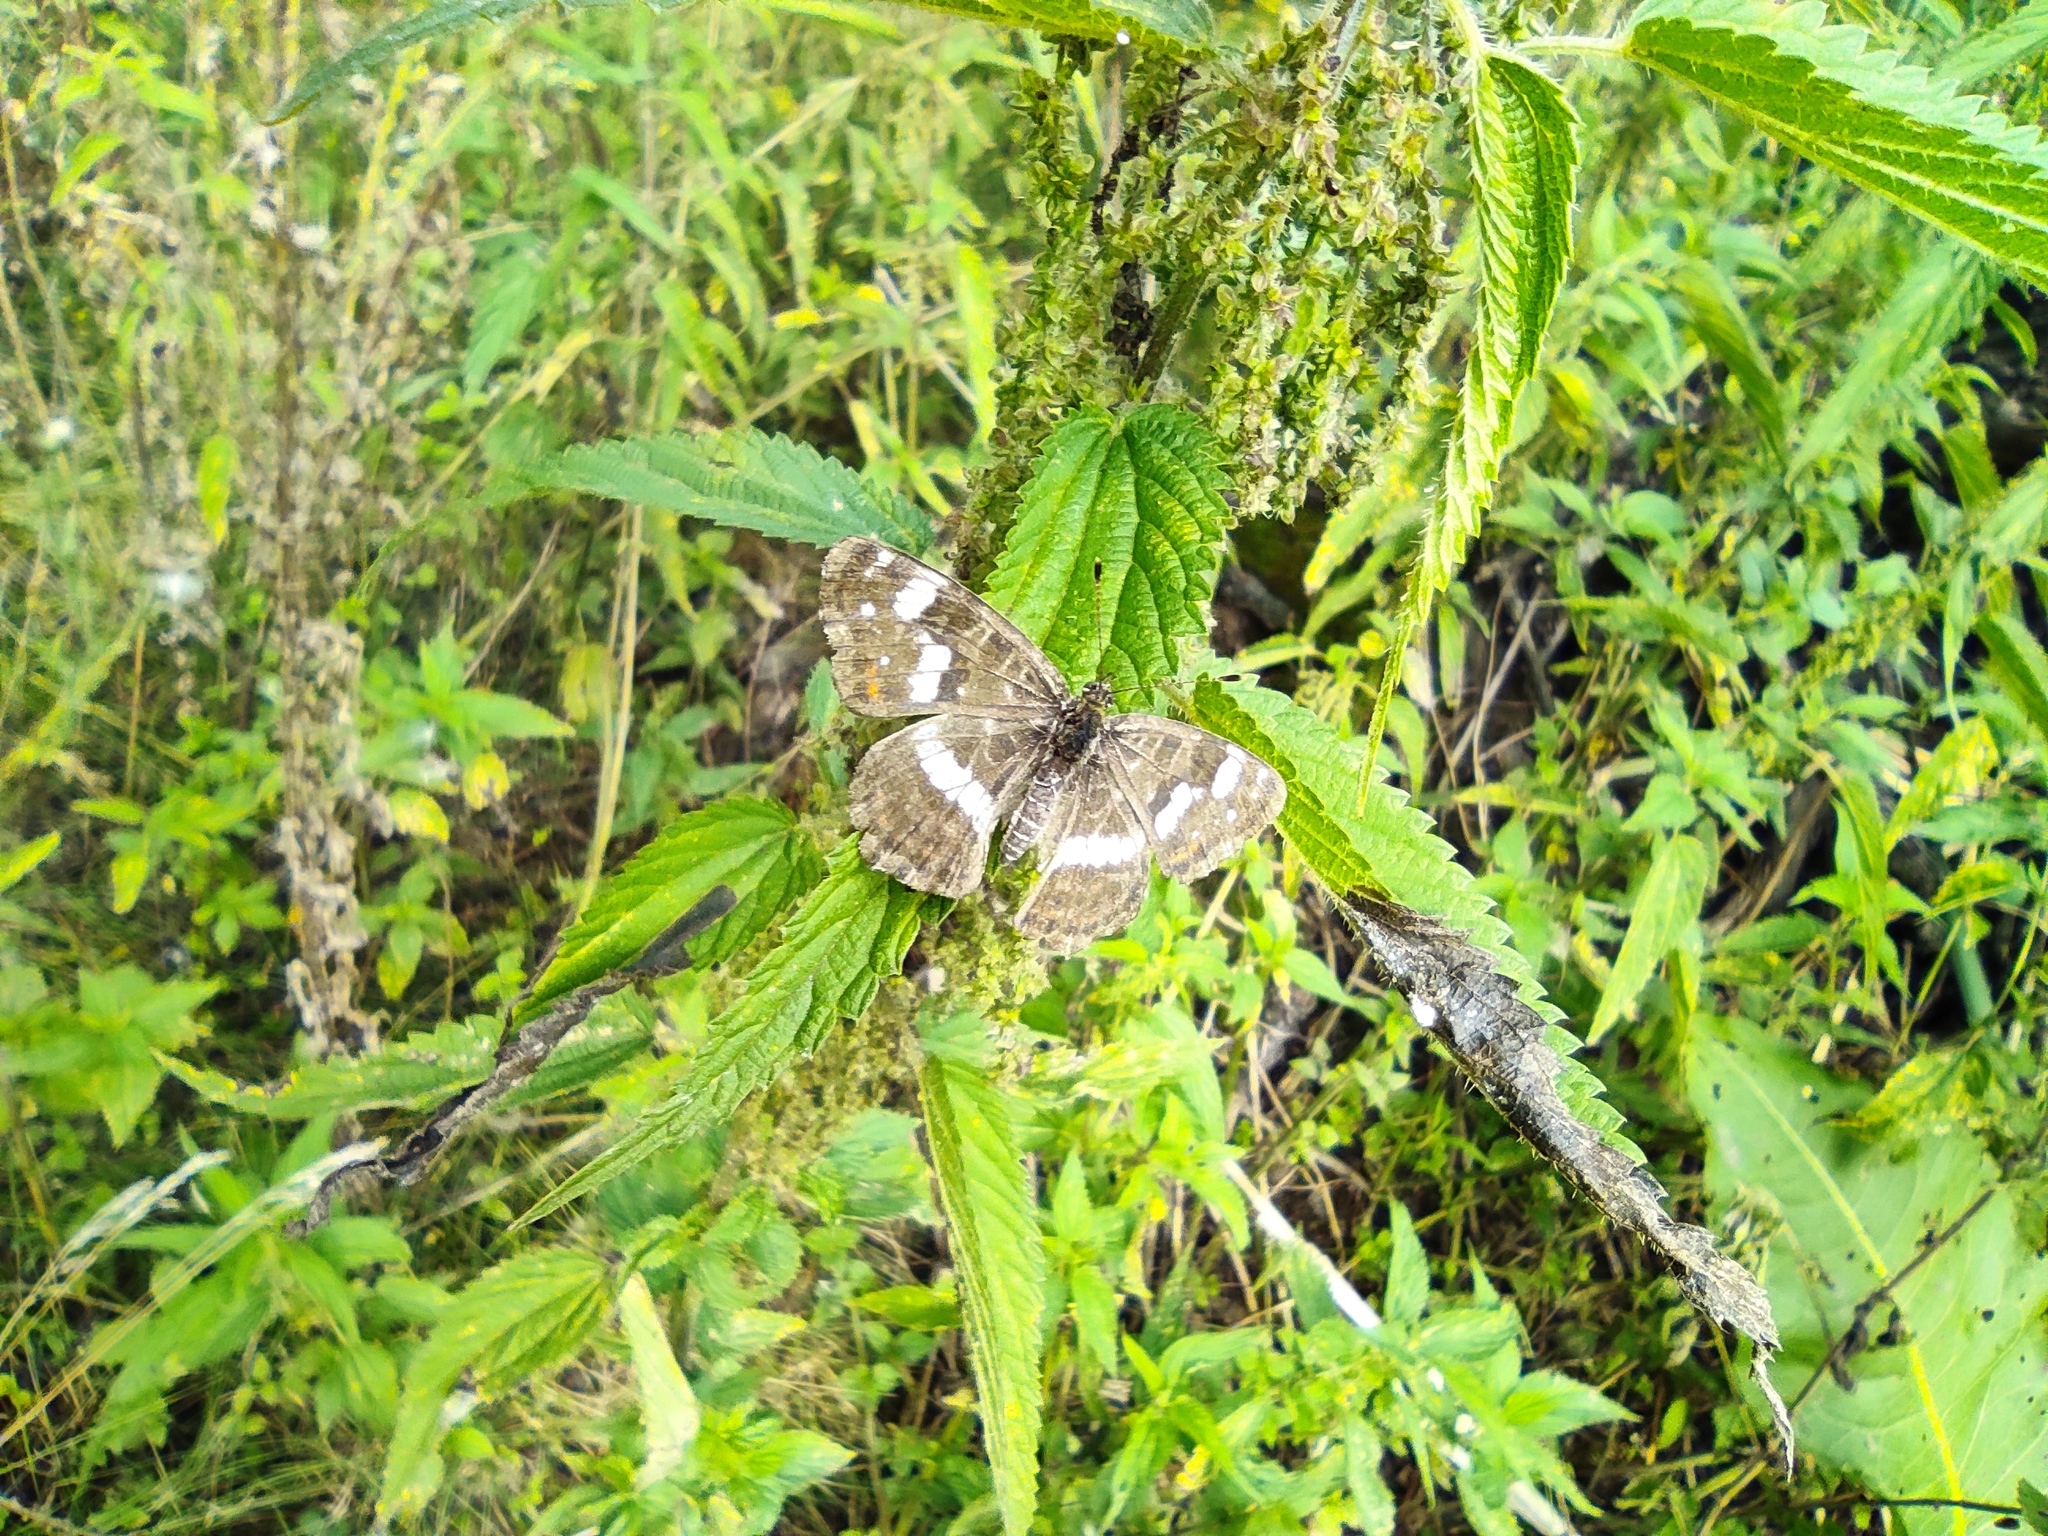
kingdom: Animalia
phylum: Arthropoda
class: Insecta
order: Lepidoptera
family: Nymphalidae
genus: Araschnia
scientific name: Araschnia levana
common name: Map butterfly
